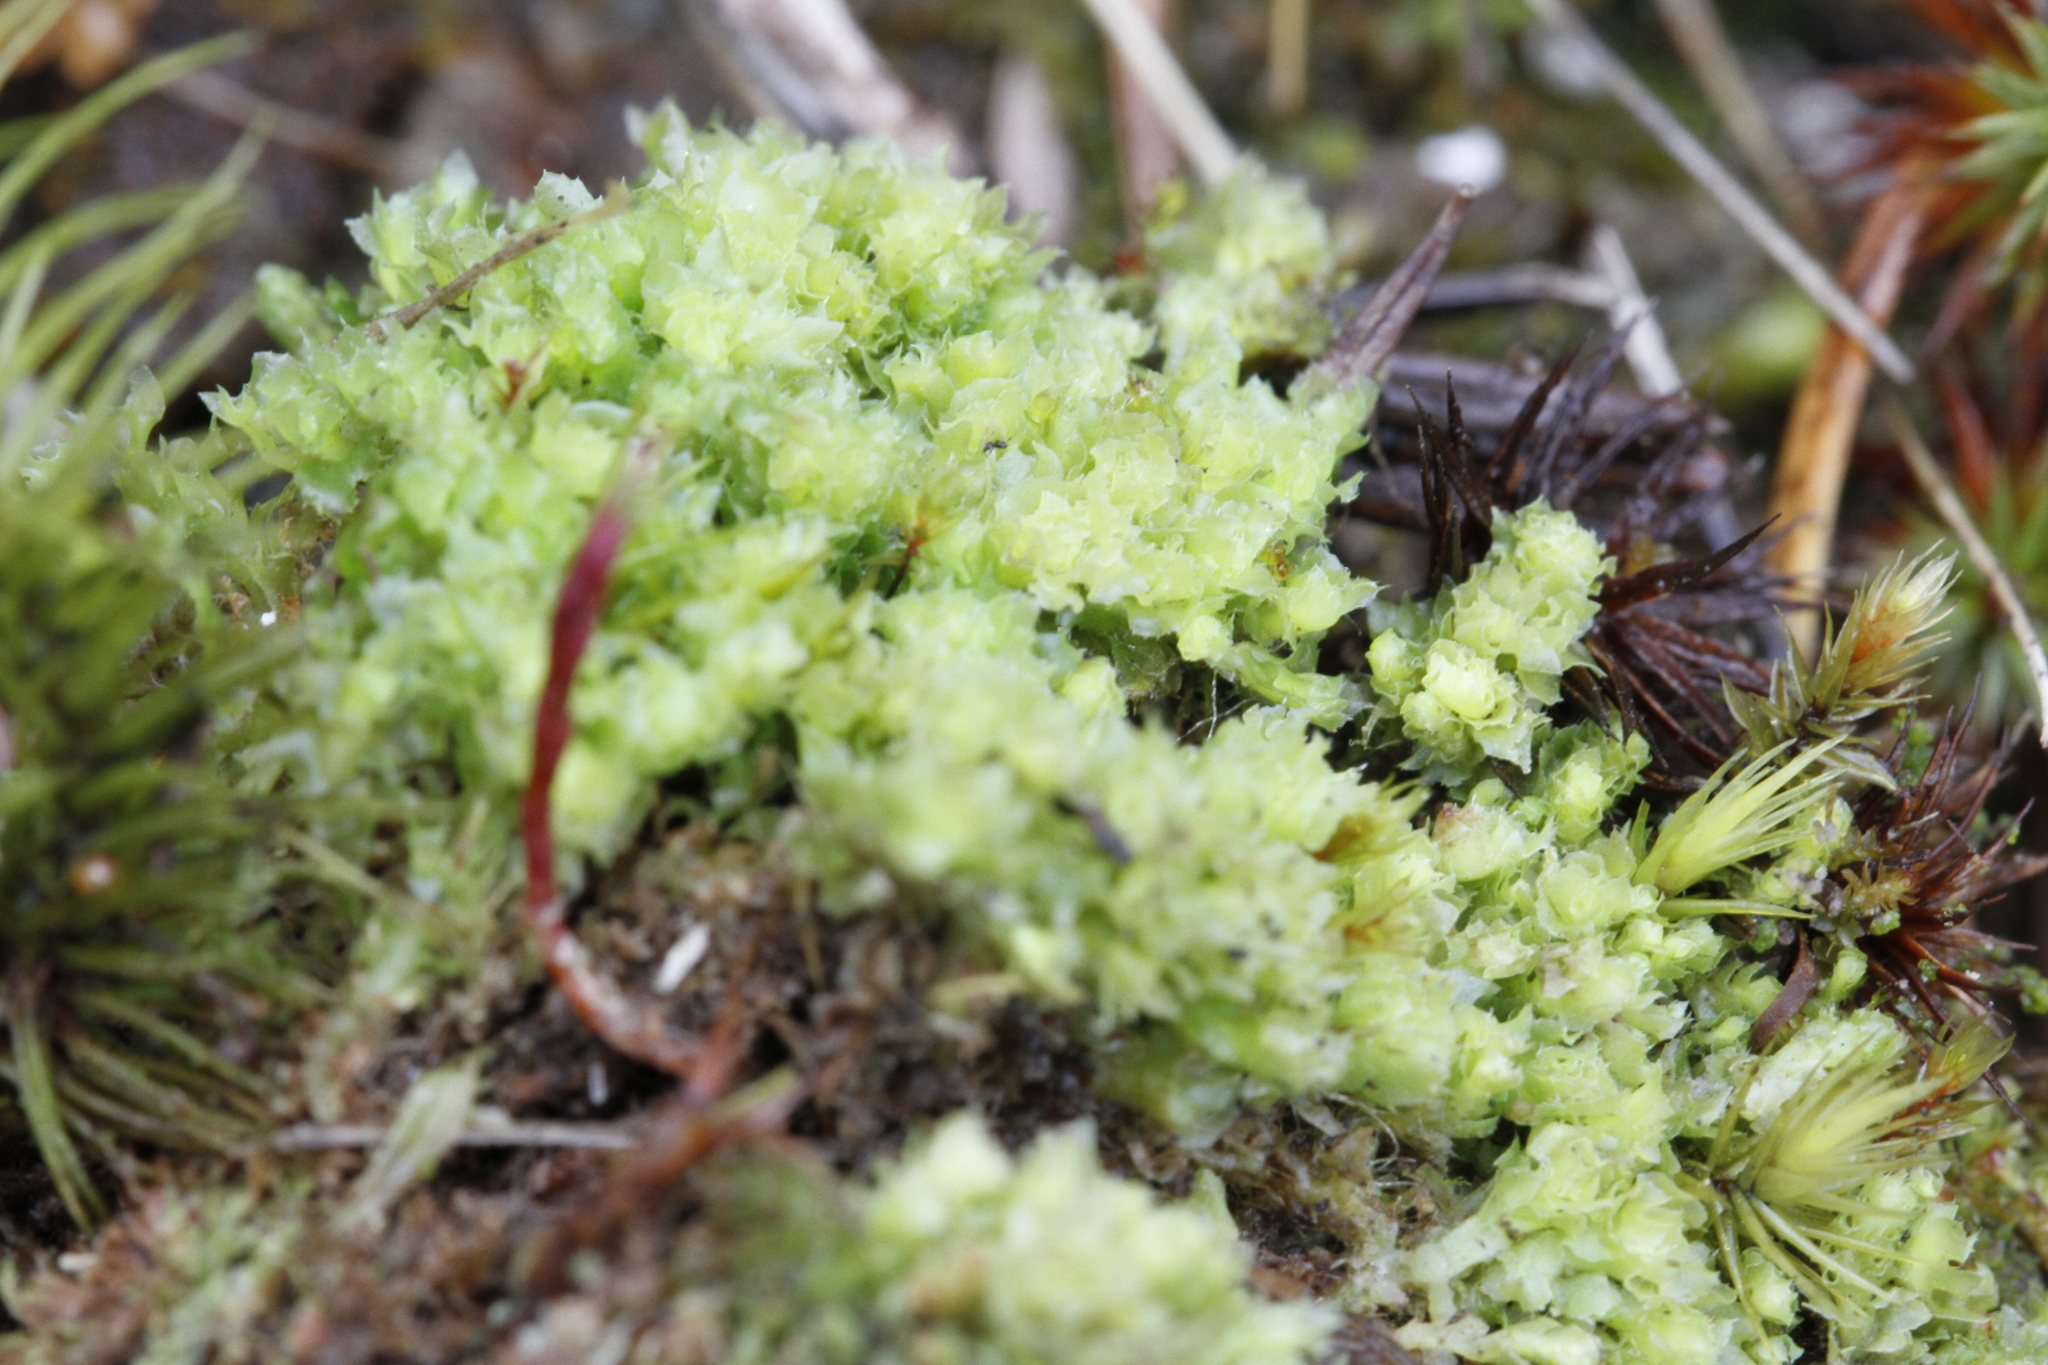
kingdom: Plantae
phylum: Marchantiophyta
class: Jungermanniopsida
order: Jungermanniales
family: Scapaniaceae
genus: Schistochilopsis
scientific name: Schistochilopsis incisa
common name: Jagged notchwort
